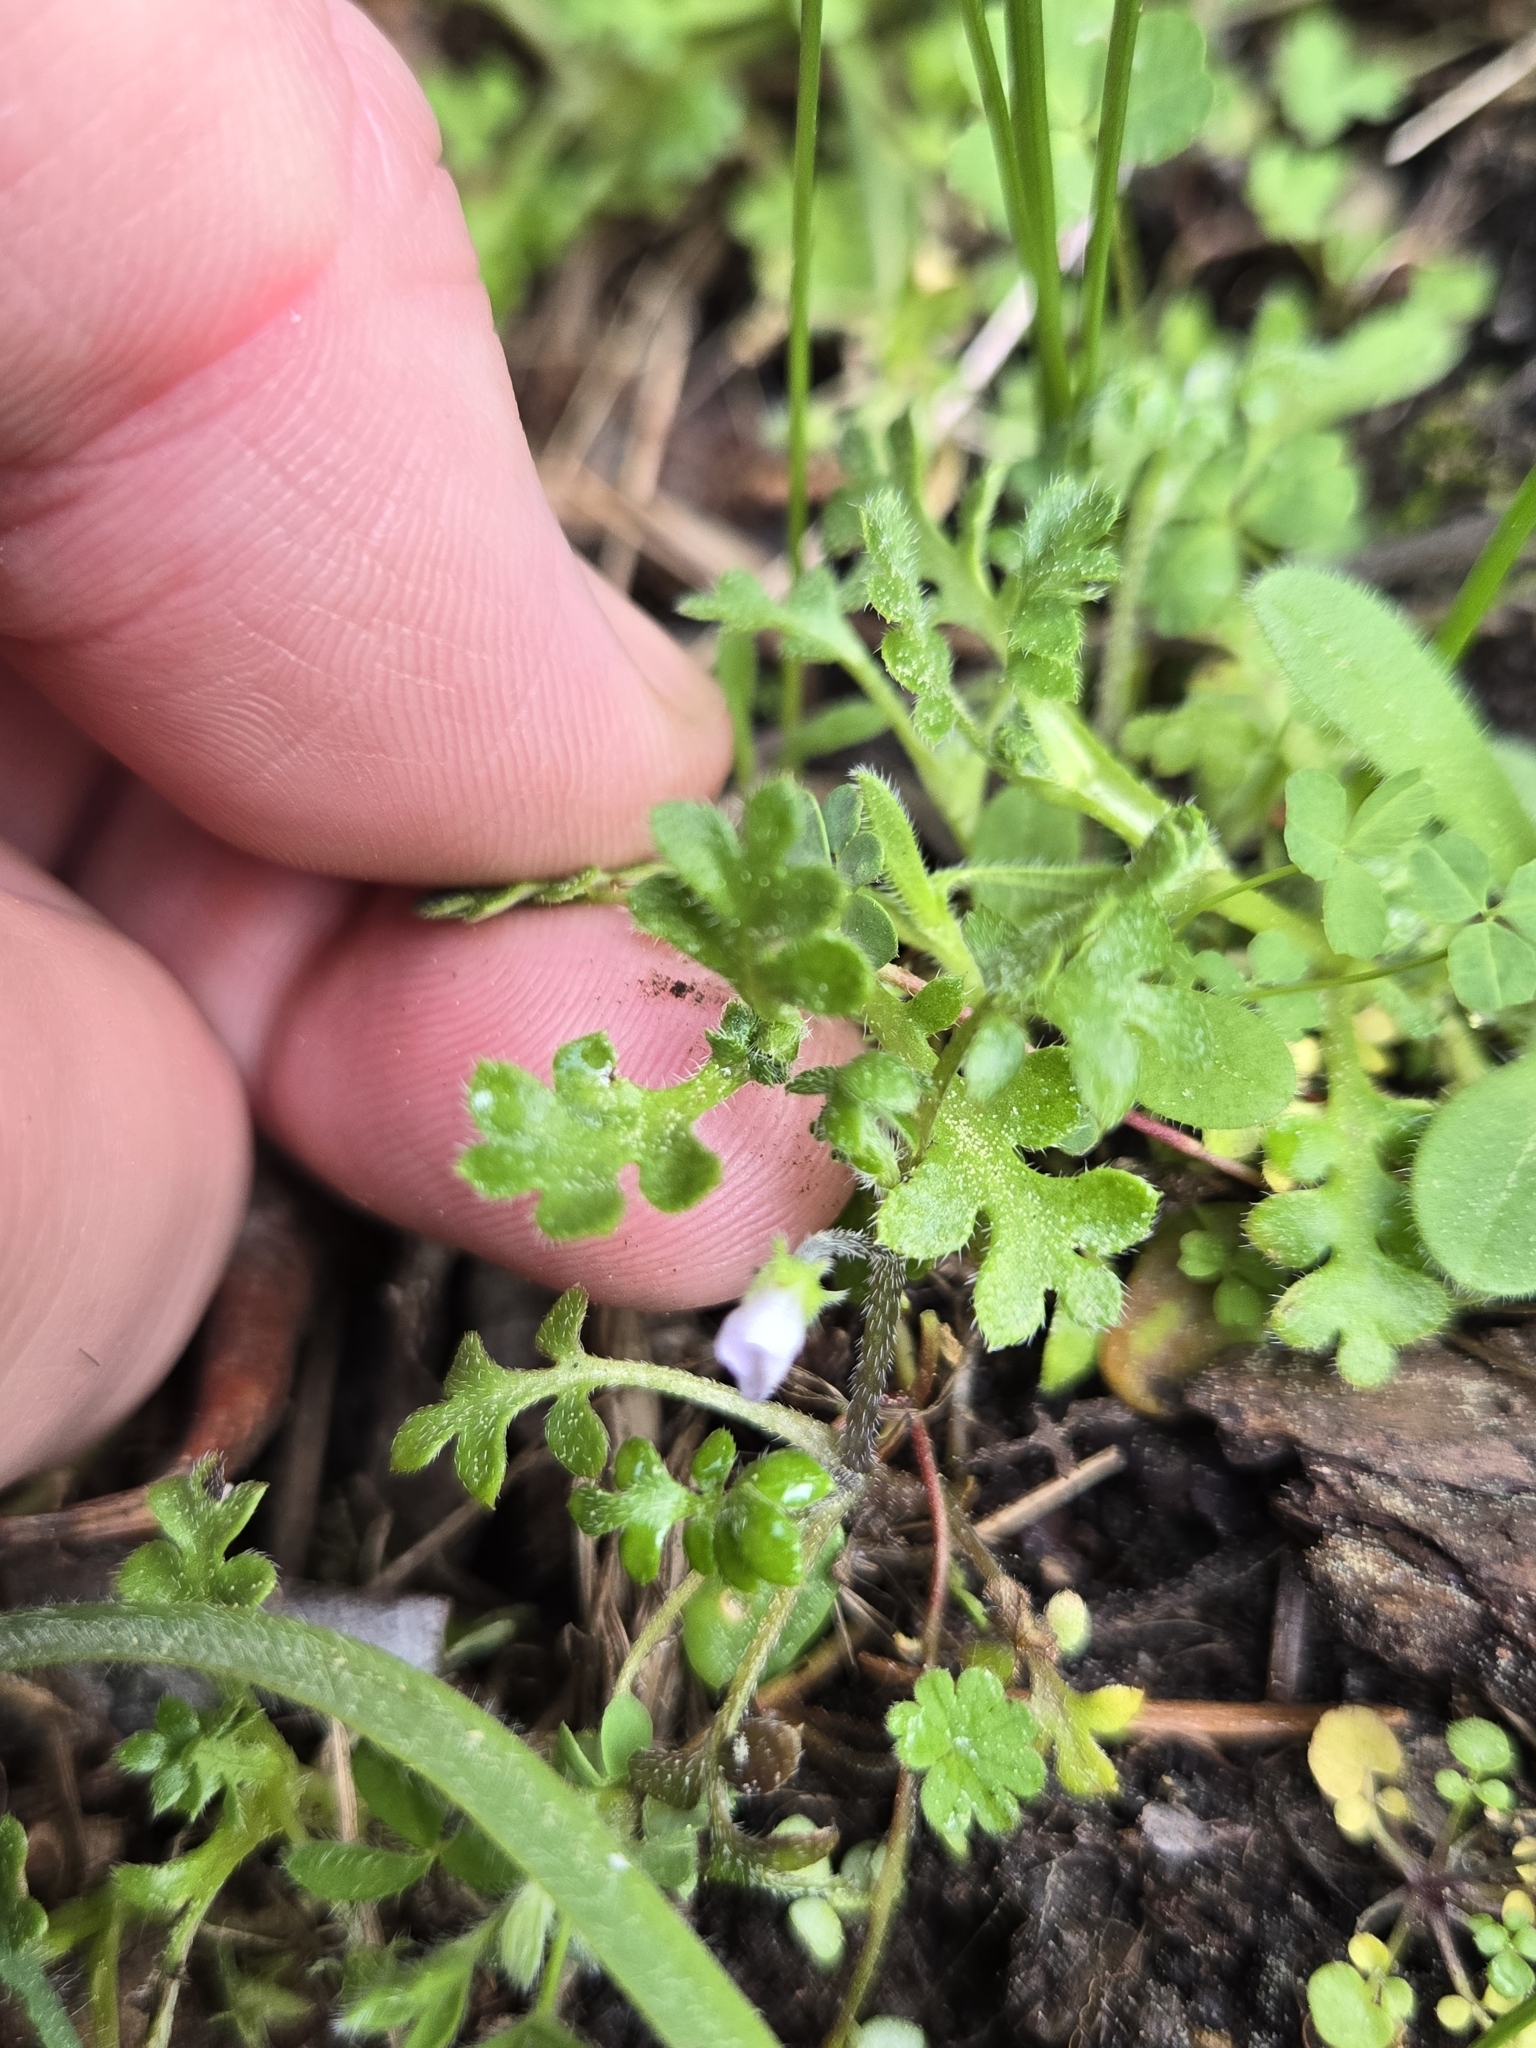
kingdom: Plantae
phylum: Tracheophyta
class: Magnoliopsida
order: Boraginales
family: Hydrophyllaceae
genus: Nemophila
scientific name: Nemophila pedunculata
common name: Little-foot baby-blue-eyes
